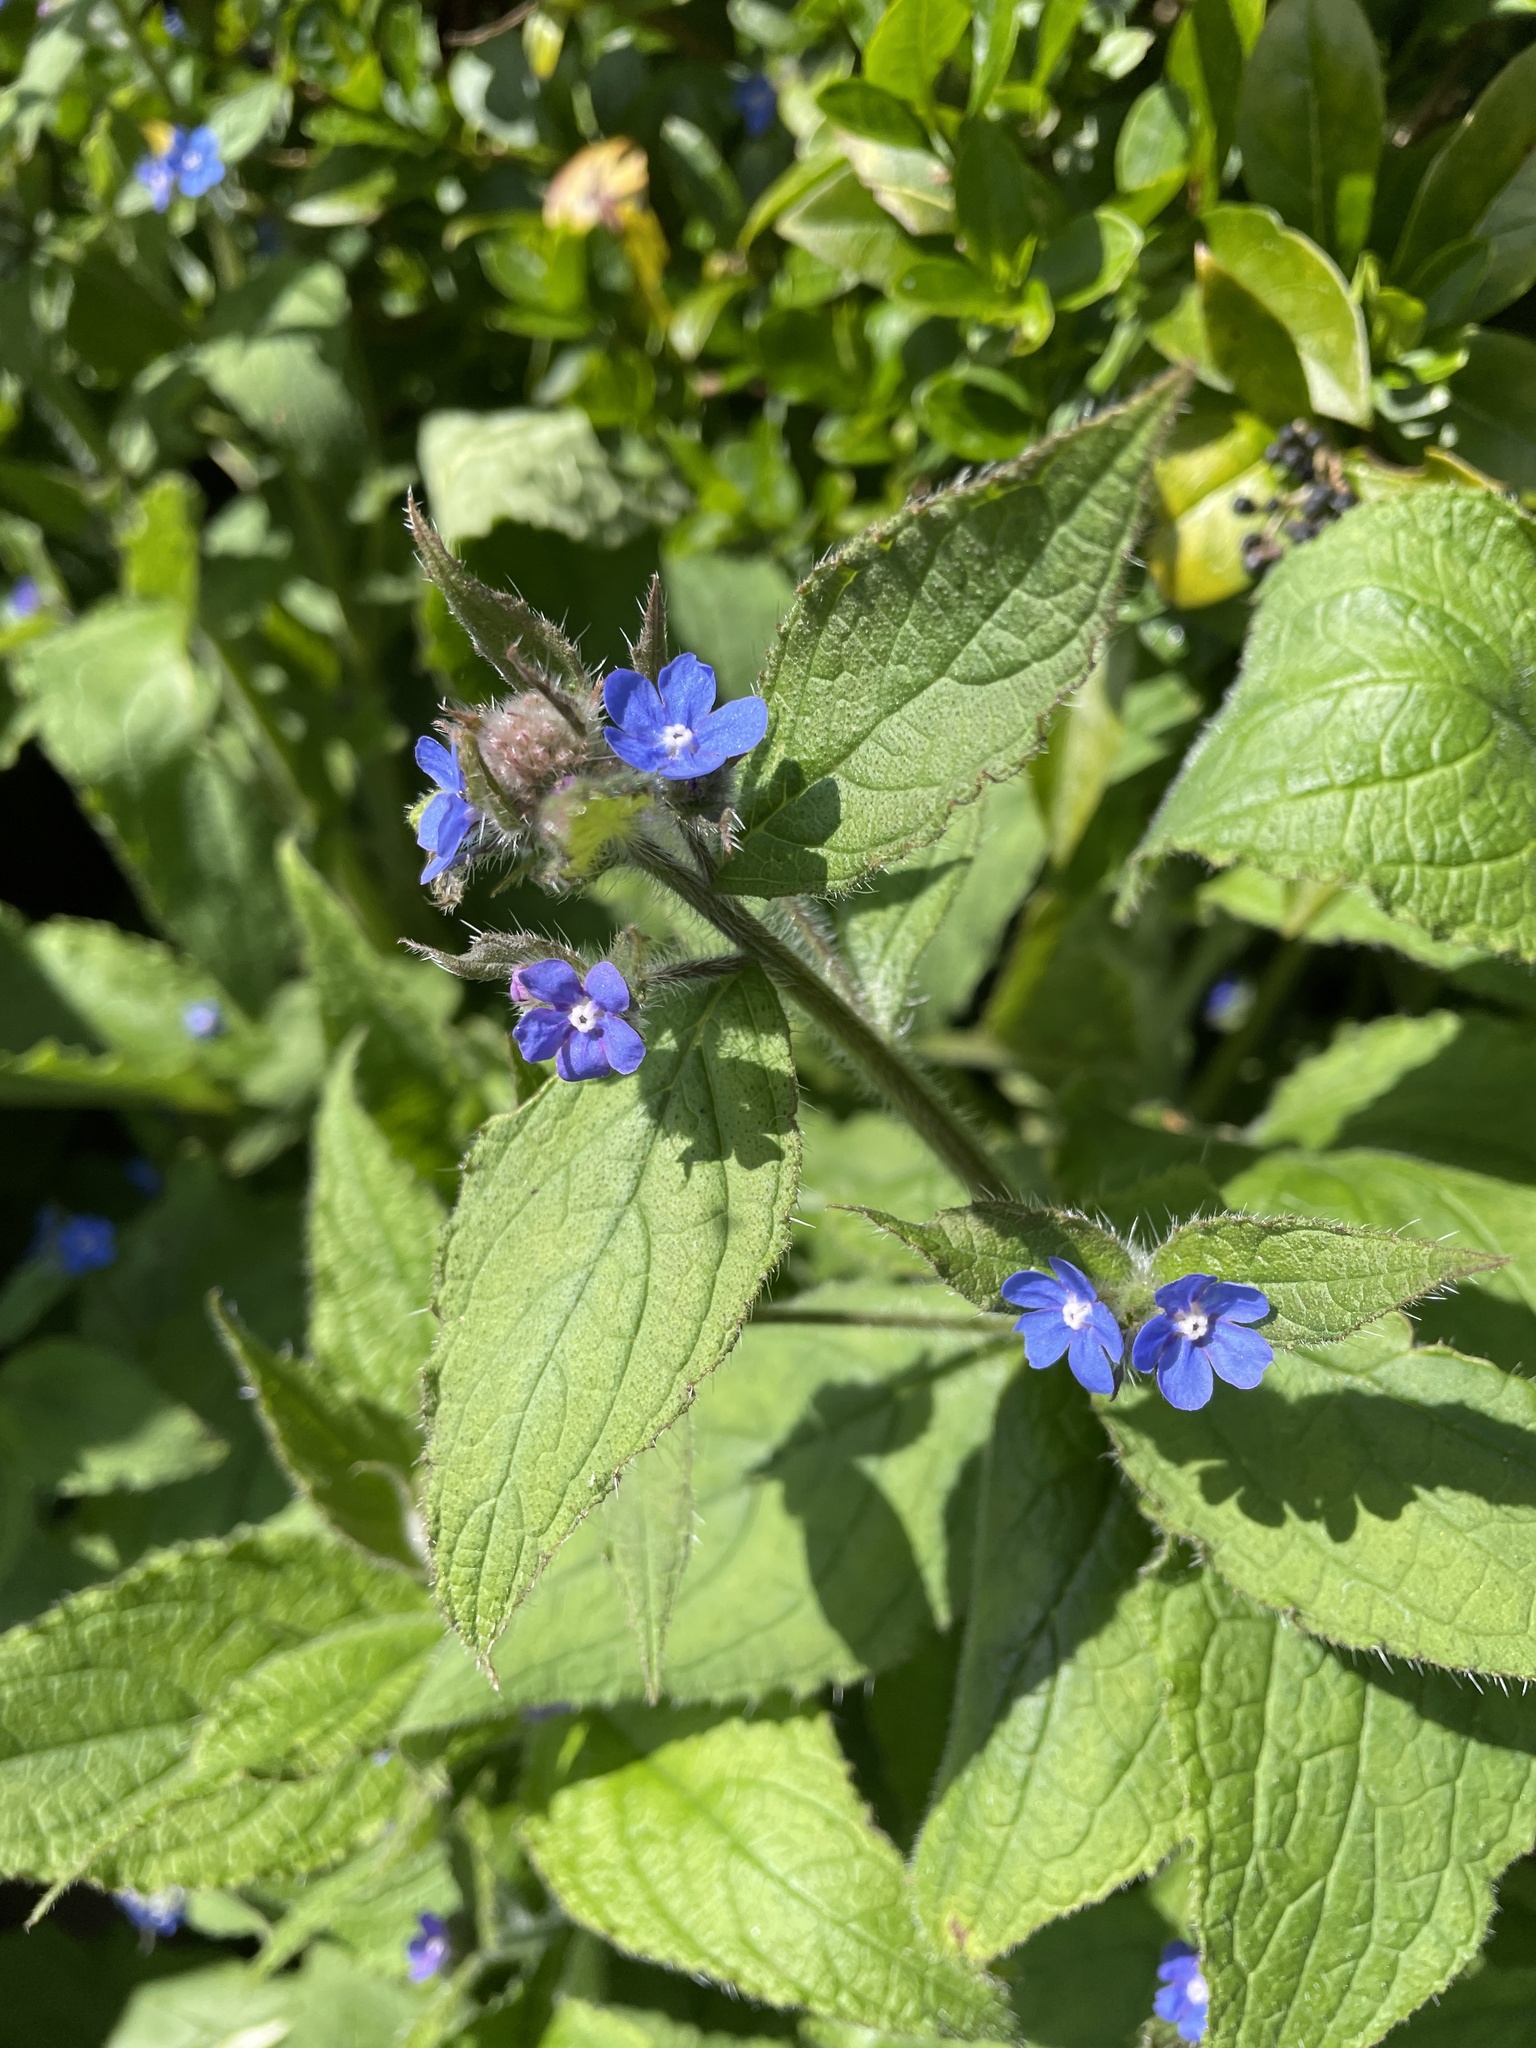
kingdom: Plantae
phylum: Tracheophyta
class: Magnoliopsida
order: Boraginales
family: Boraginaceae
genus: Pentaglottis
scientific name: Pentaglottis sempervirens
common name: Green alkanet
